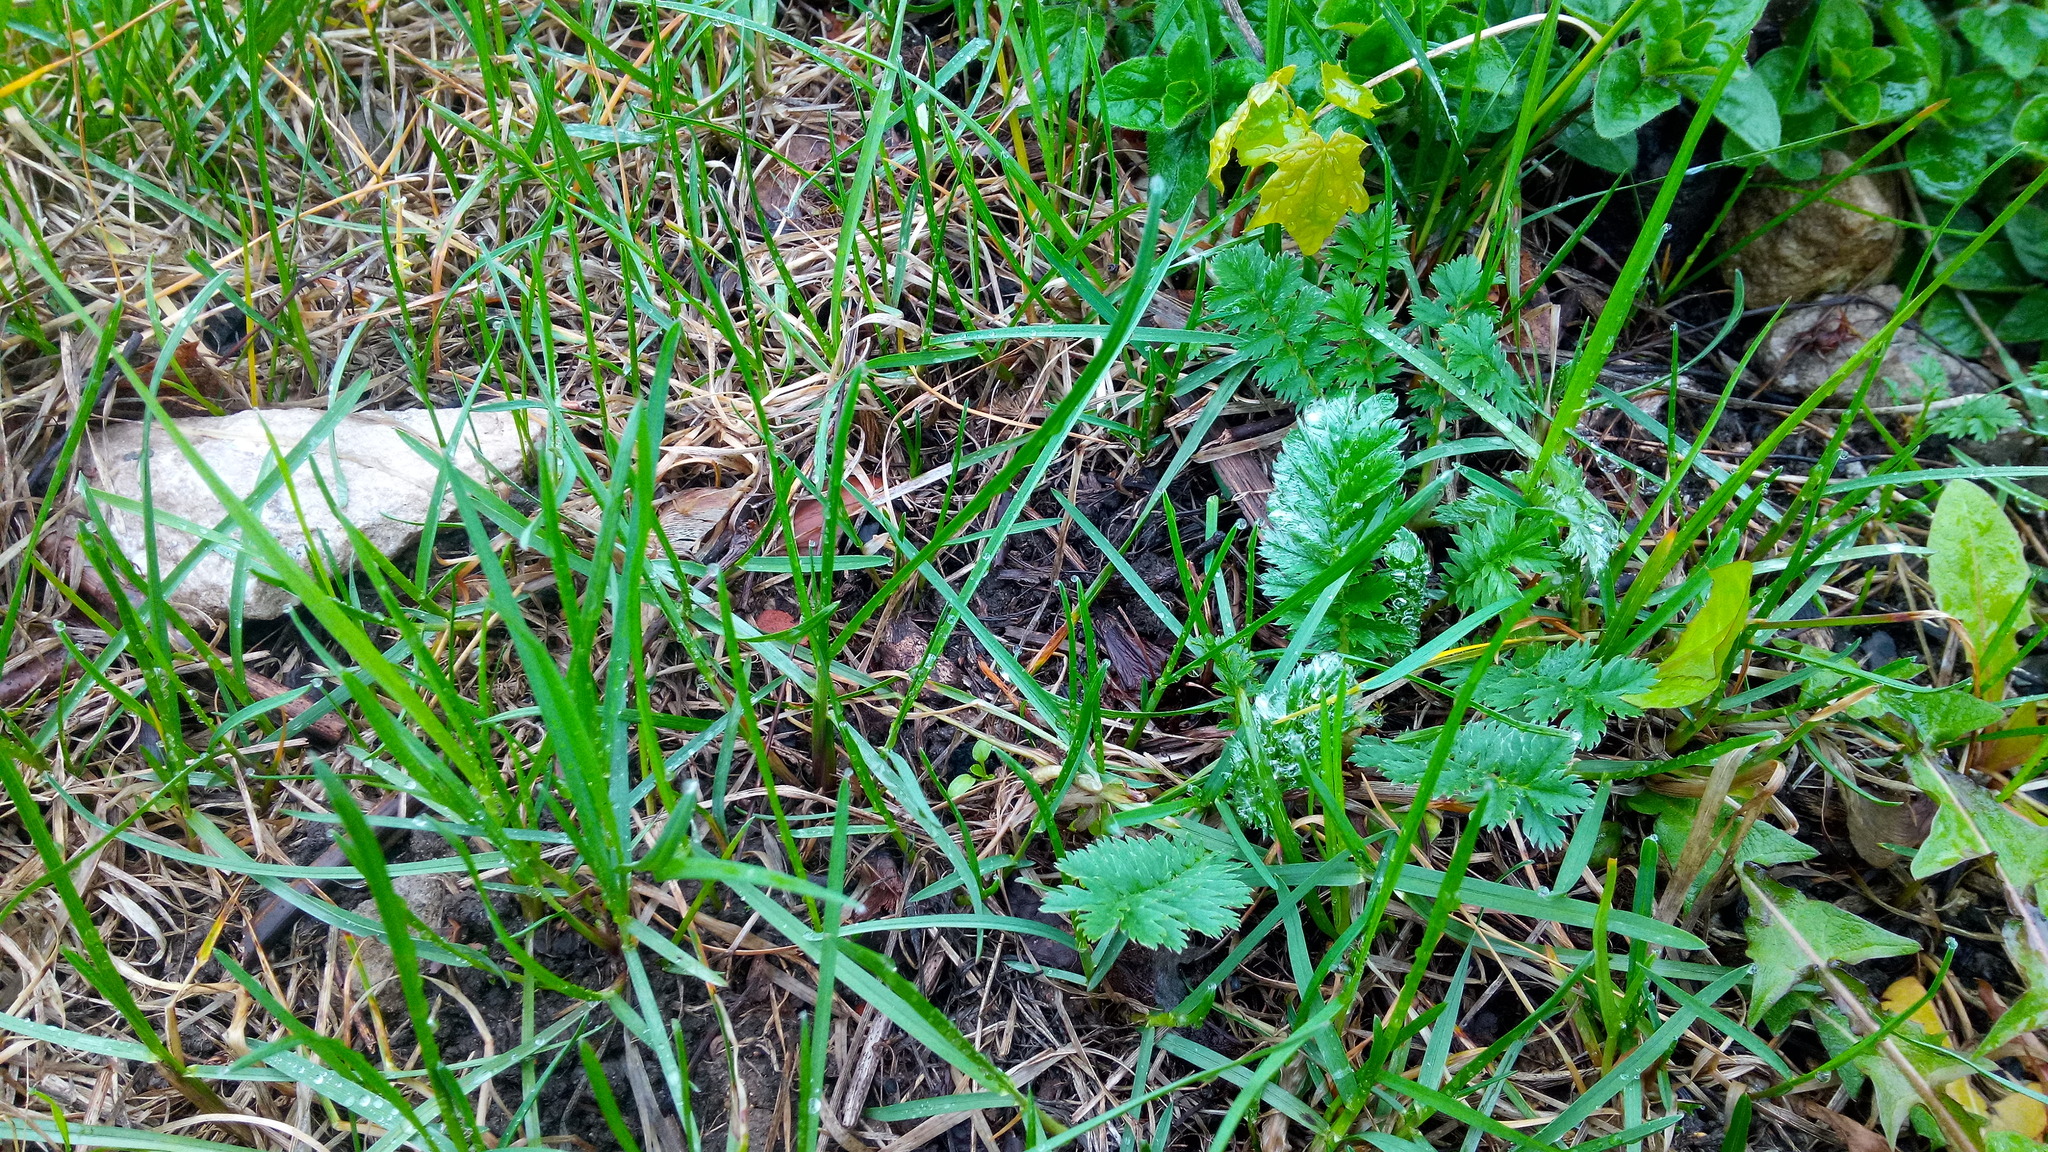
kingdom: Plantae
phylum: Tracheophyta
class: Magnoliopsida
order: Rosales
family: Rosaceae
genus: Argentina
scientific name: Argentina anserina
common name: Common silverweed
